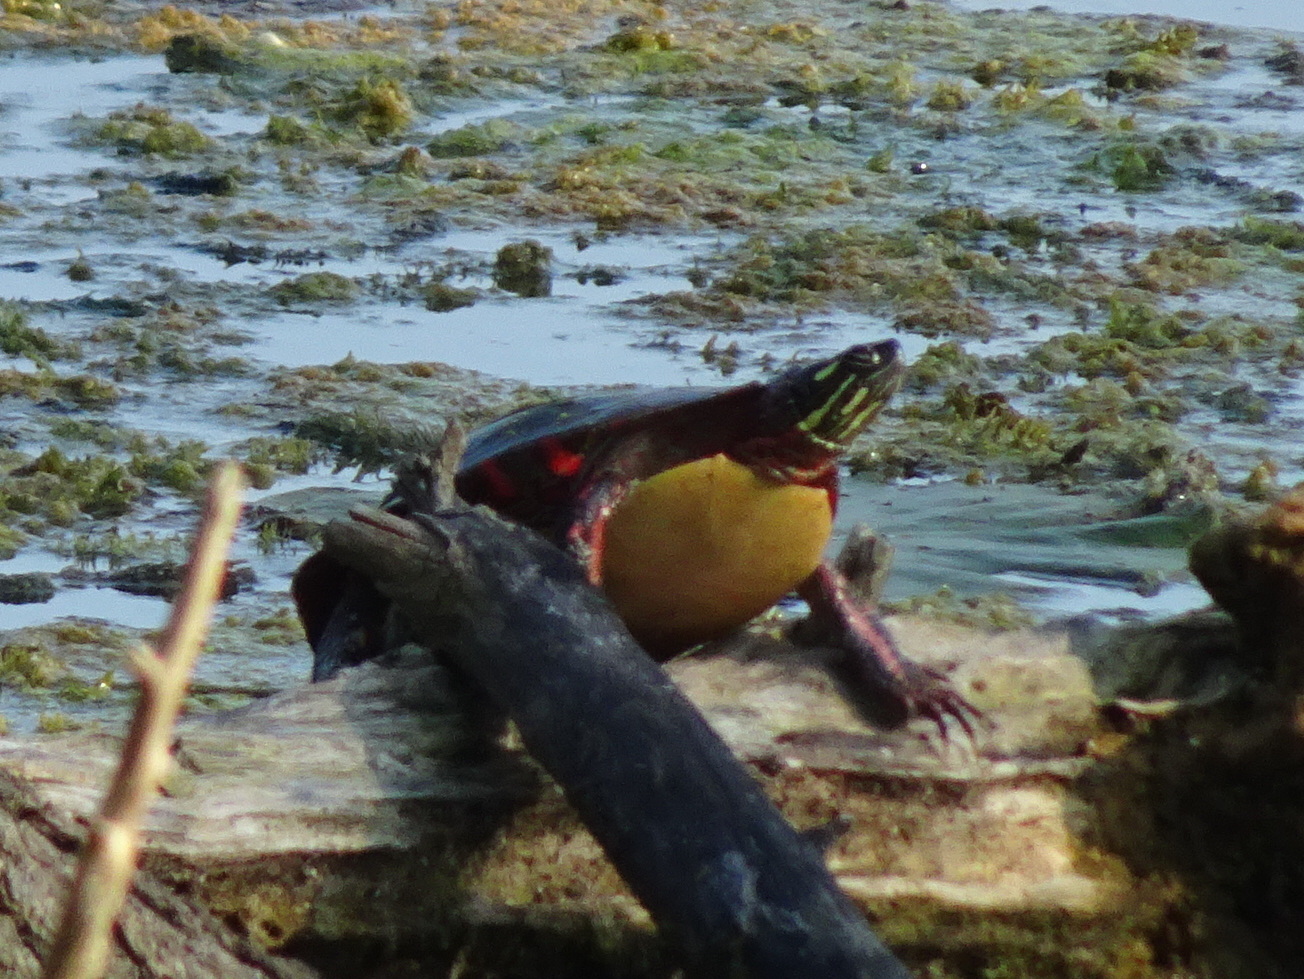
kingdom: Animalia
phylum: Chordata
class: Testudines
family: Emydidae
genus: Chrysemys
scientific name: Chrysemys picta
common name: Painted turtle
